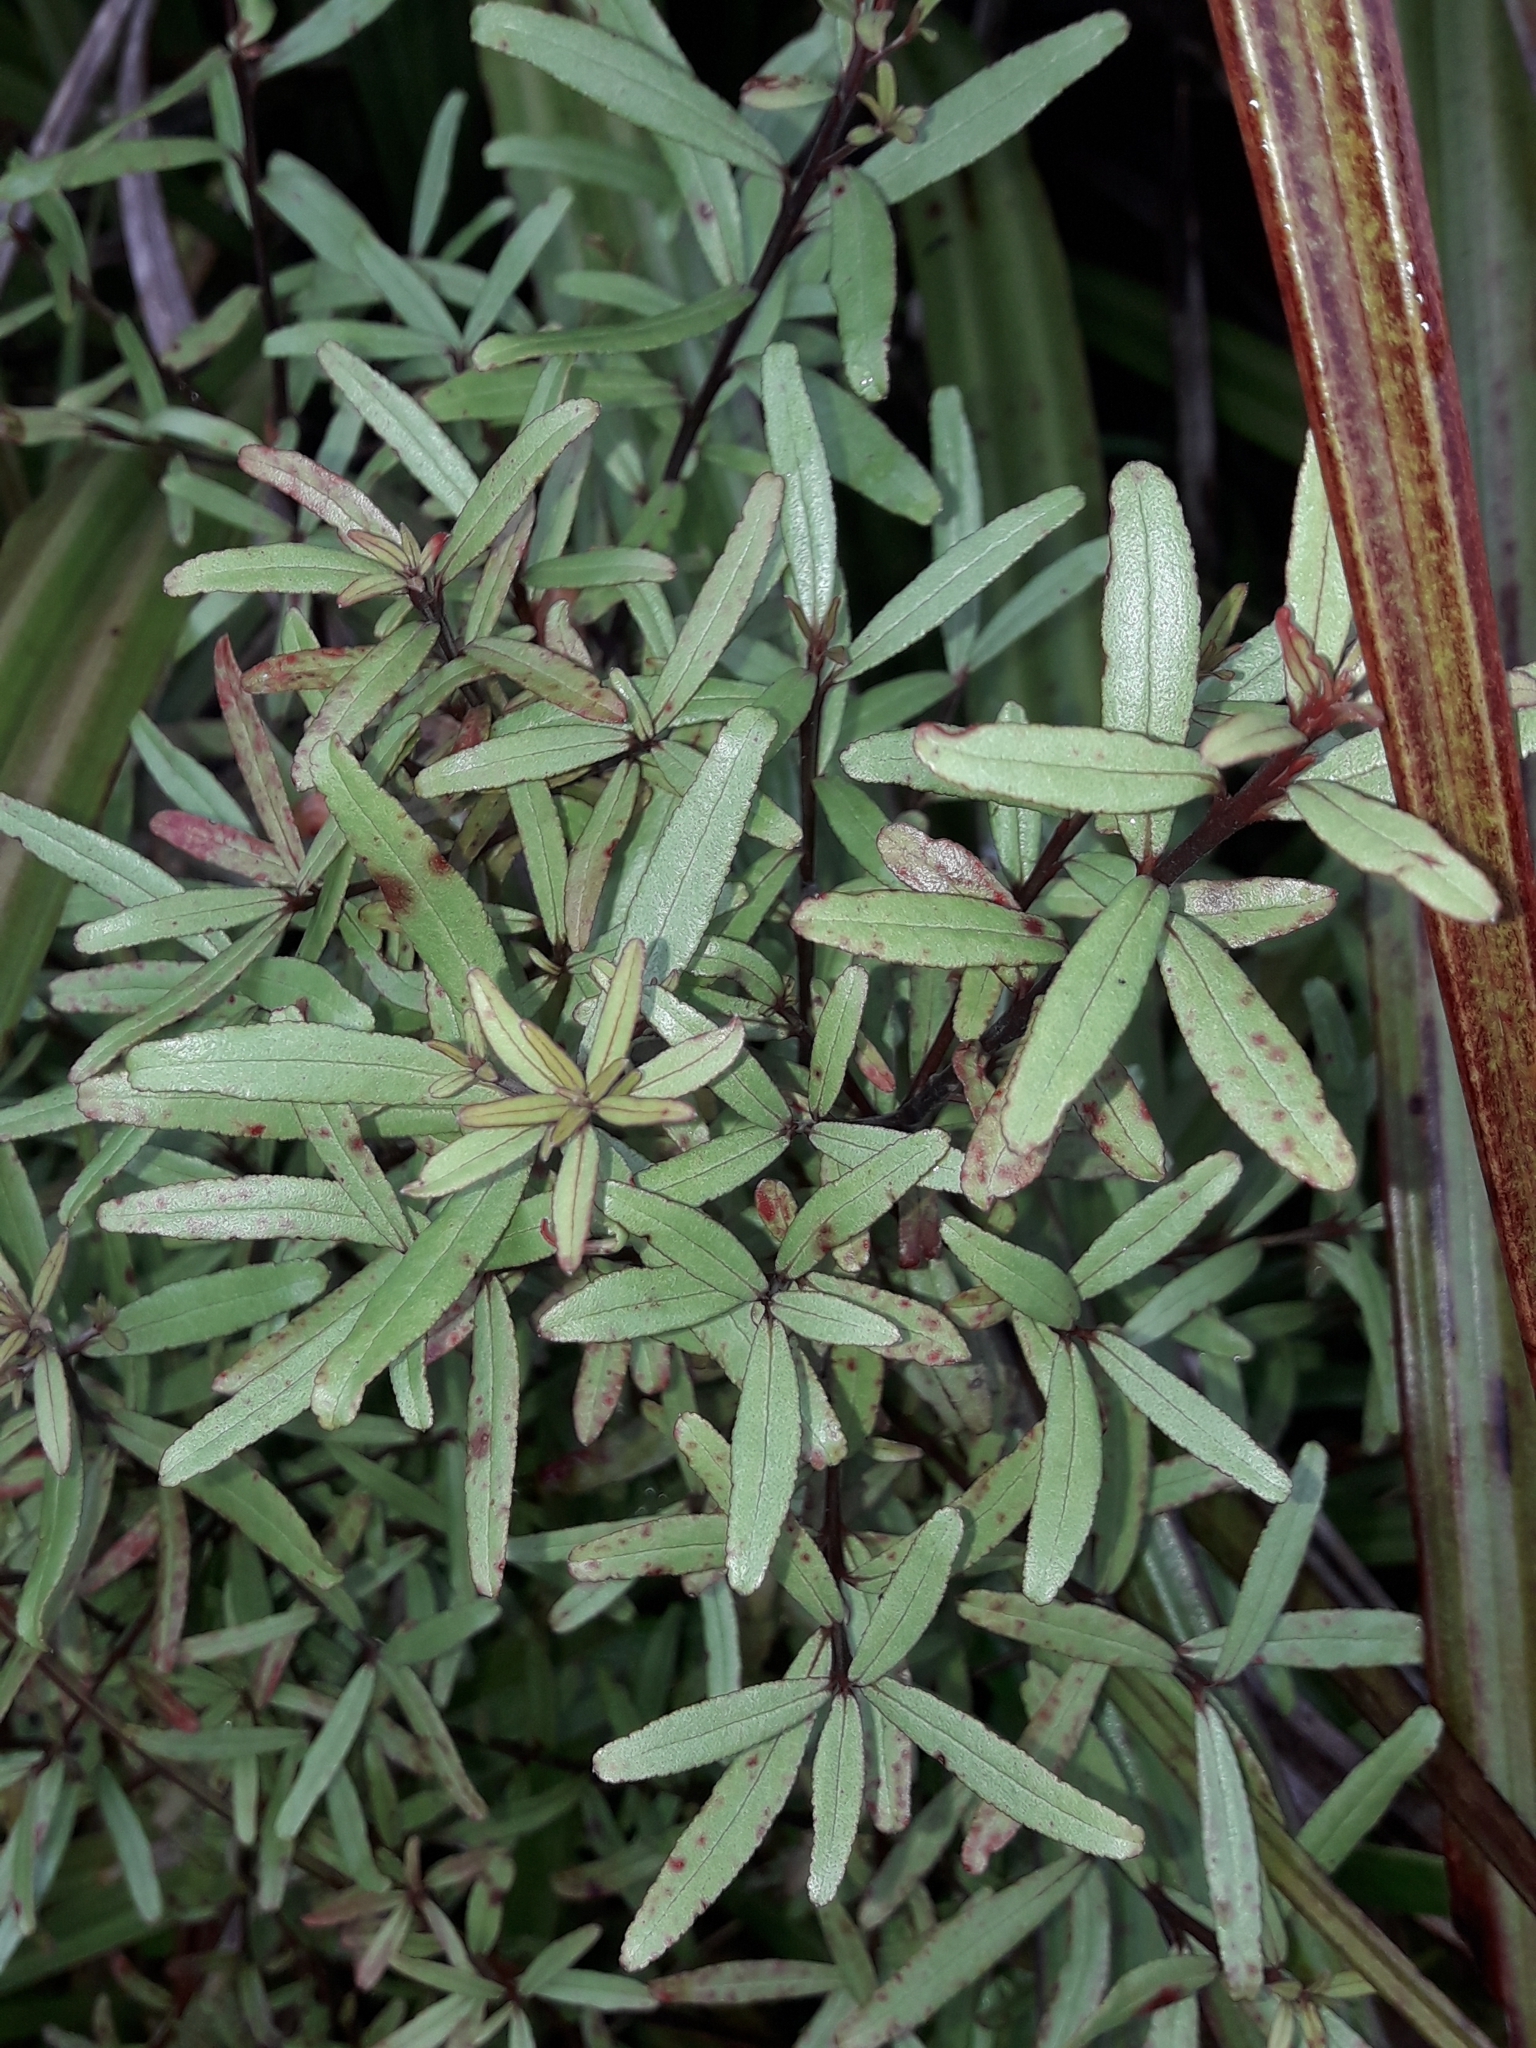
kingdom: Plantae
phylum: Tracheophyta
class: Magnoliopsida
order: Sapindales
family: Rutaceae
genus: Leionema
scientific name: Leionema nudum
